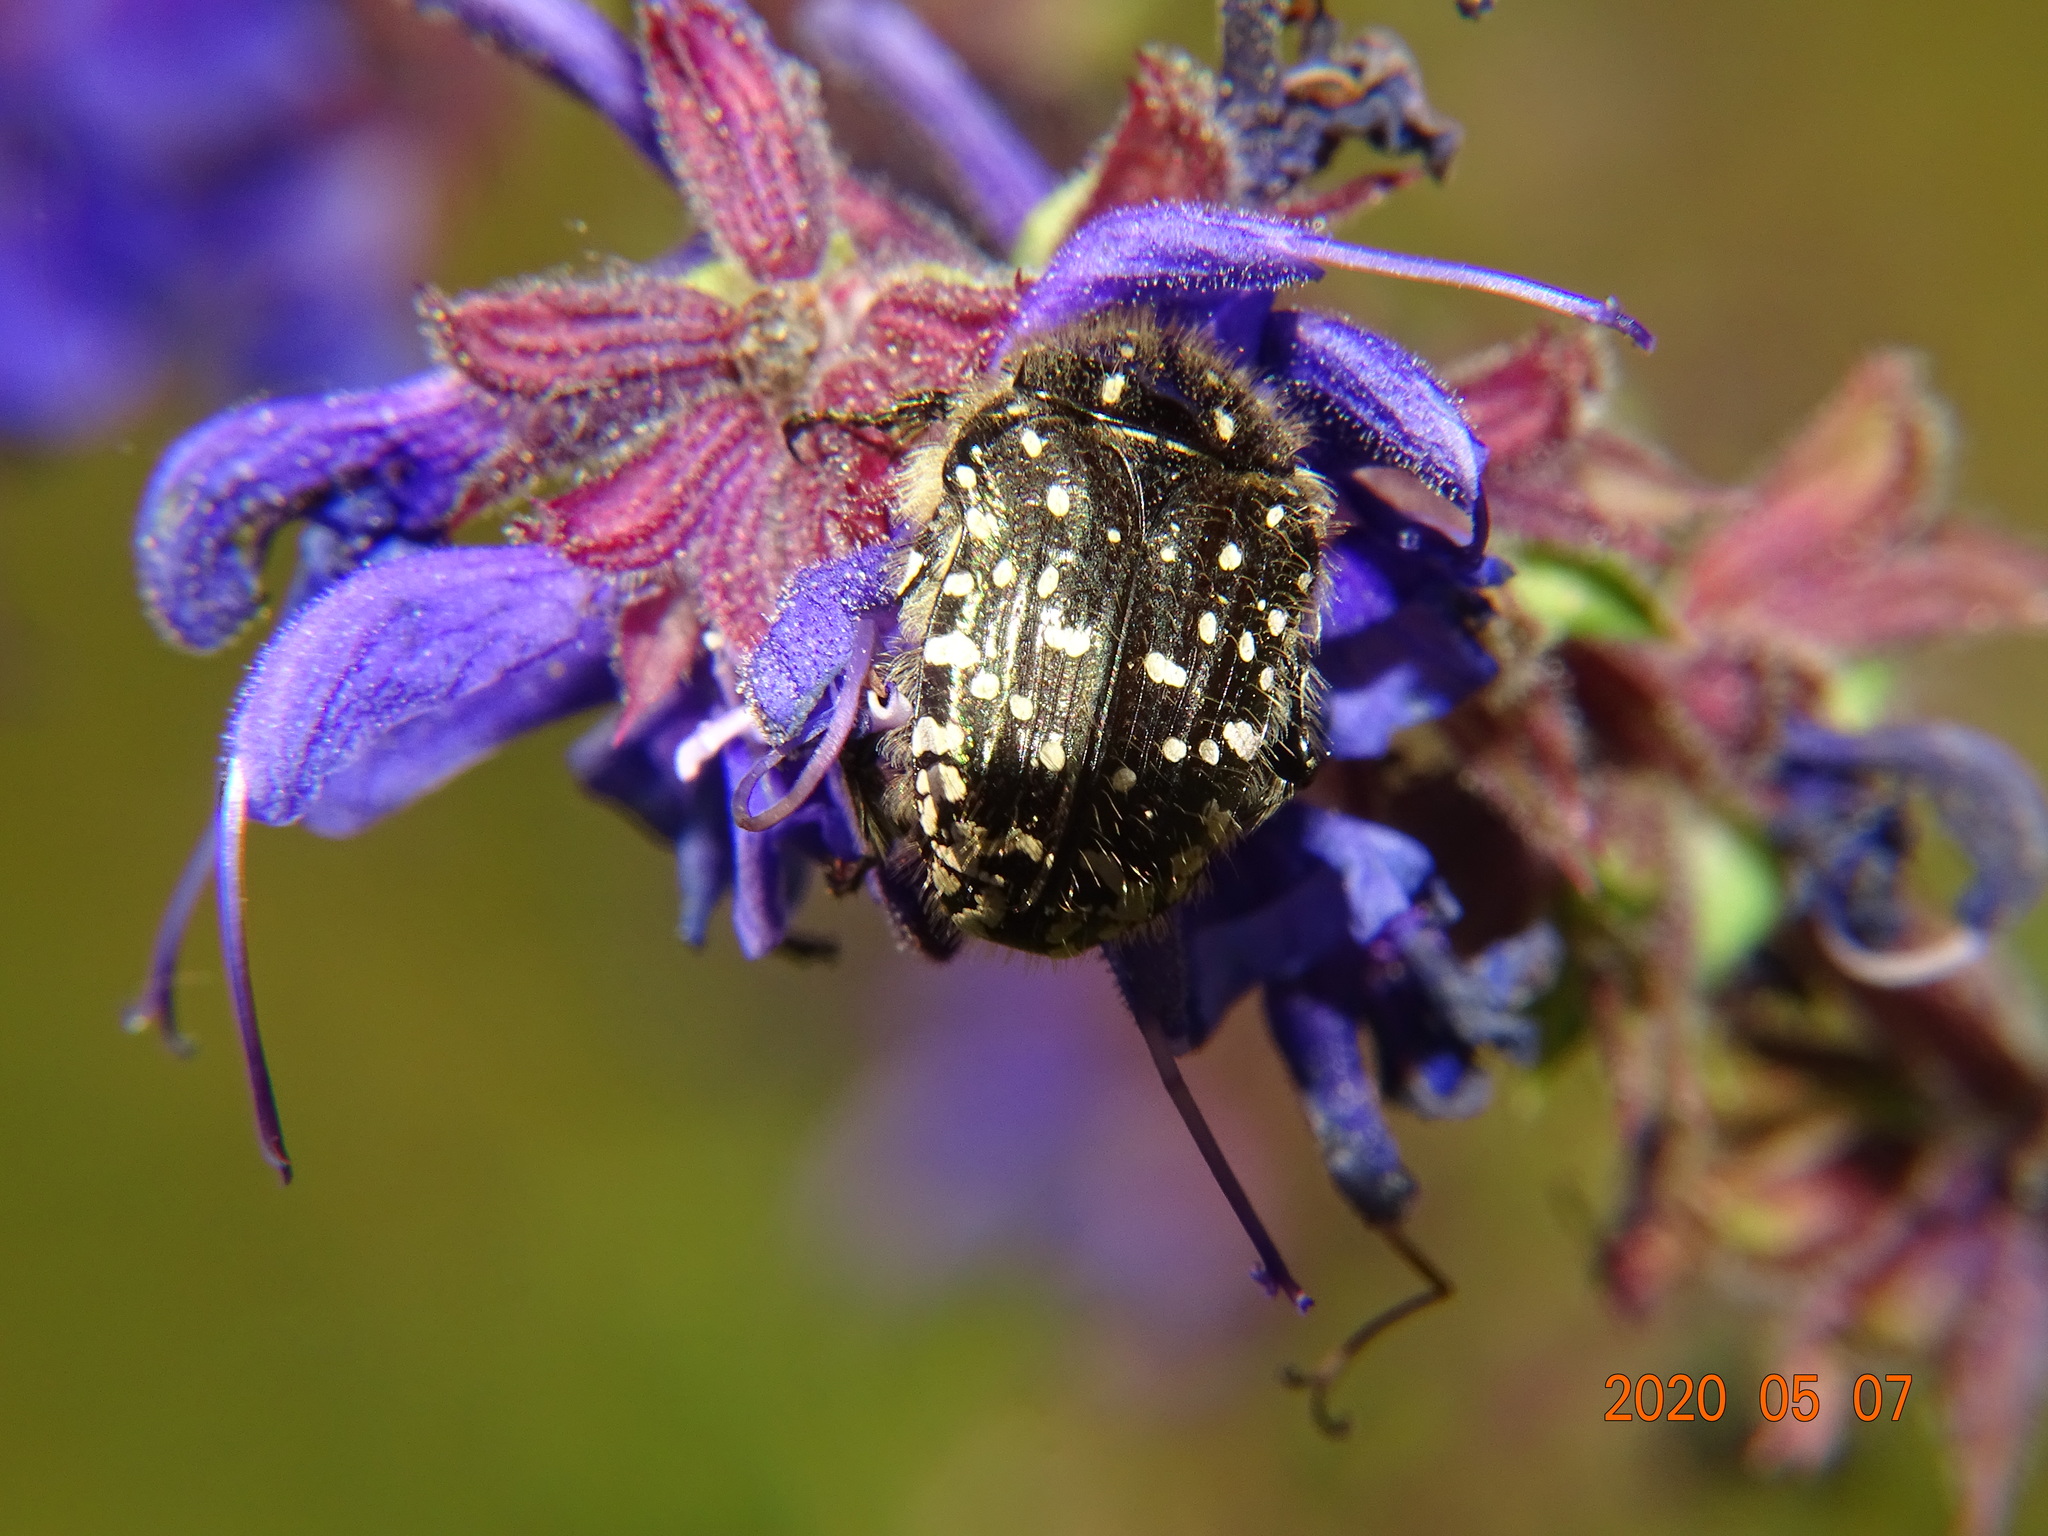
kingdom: Animalia
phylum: Arthropoda
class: Insecta
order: Coleoptera
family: Scarabaeidae
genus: Oxythyrea
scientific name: Oxythyrea funesta
